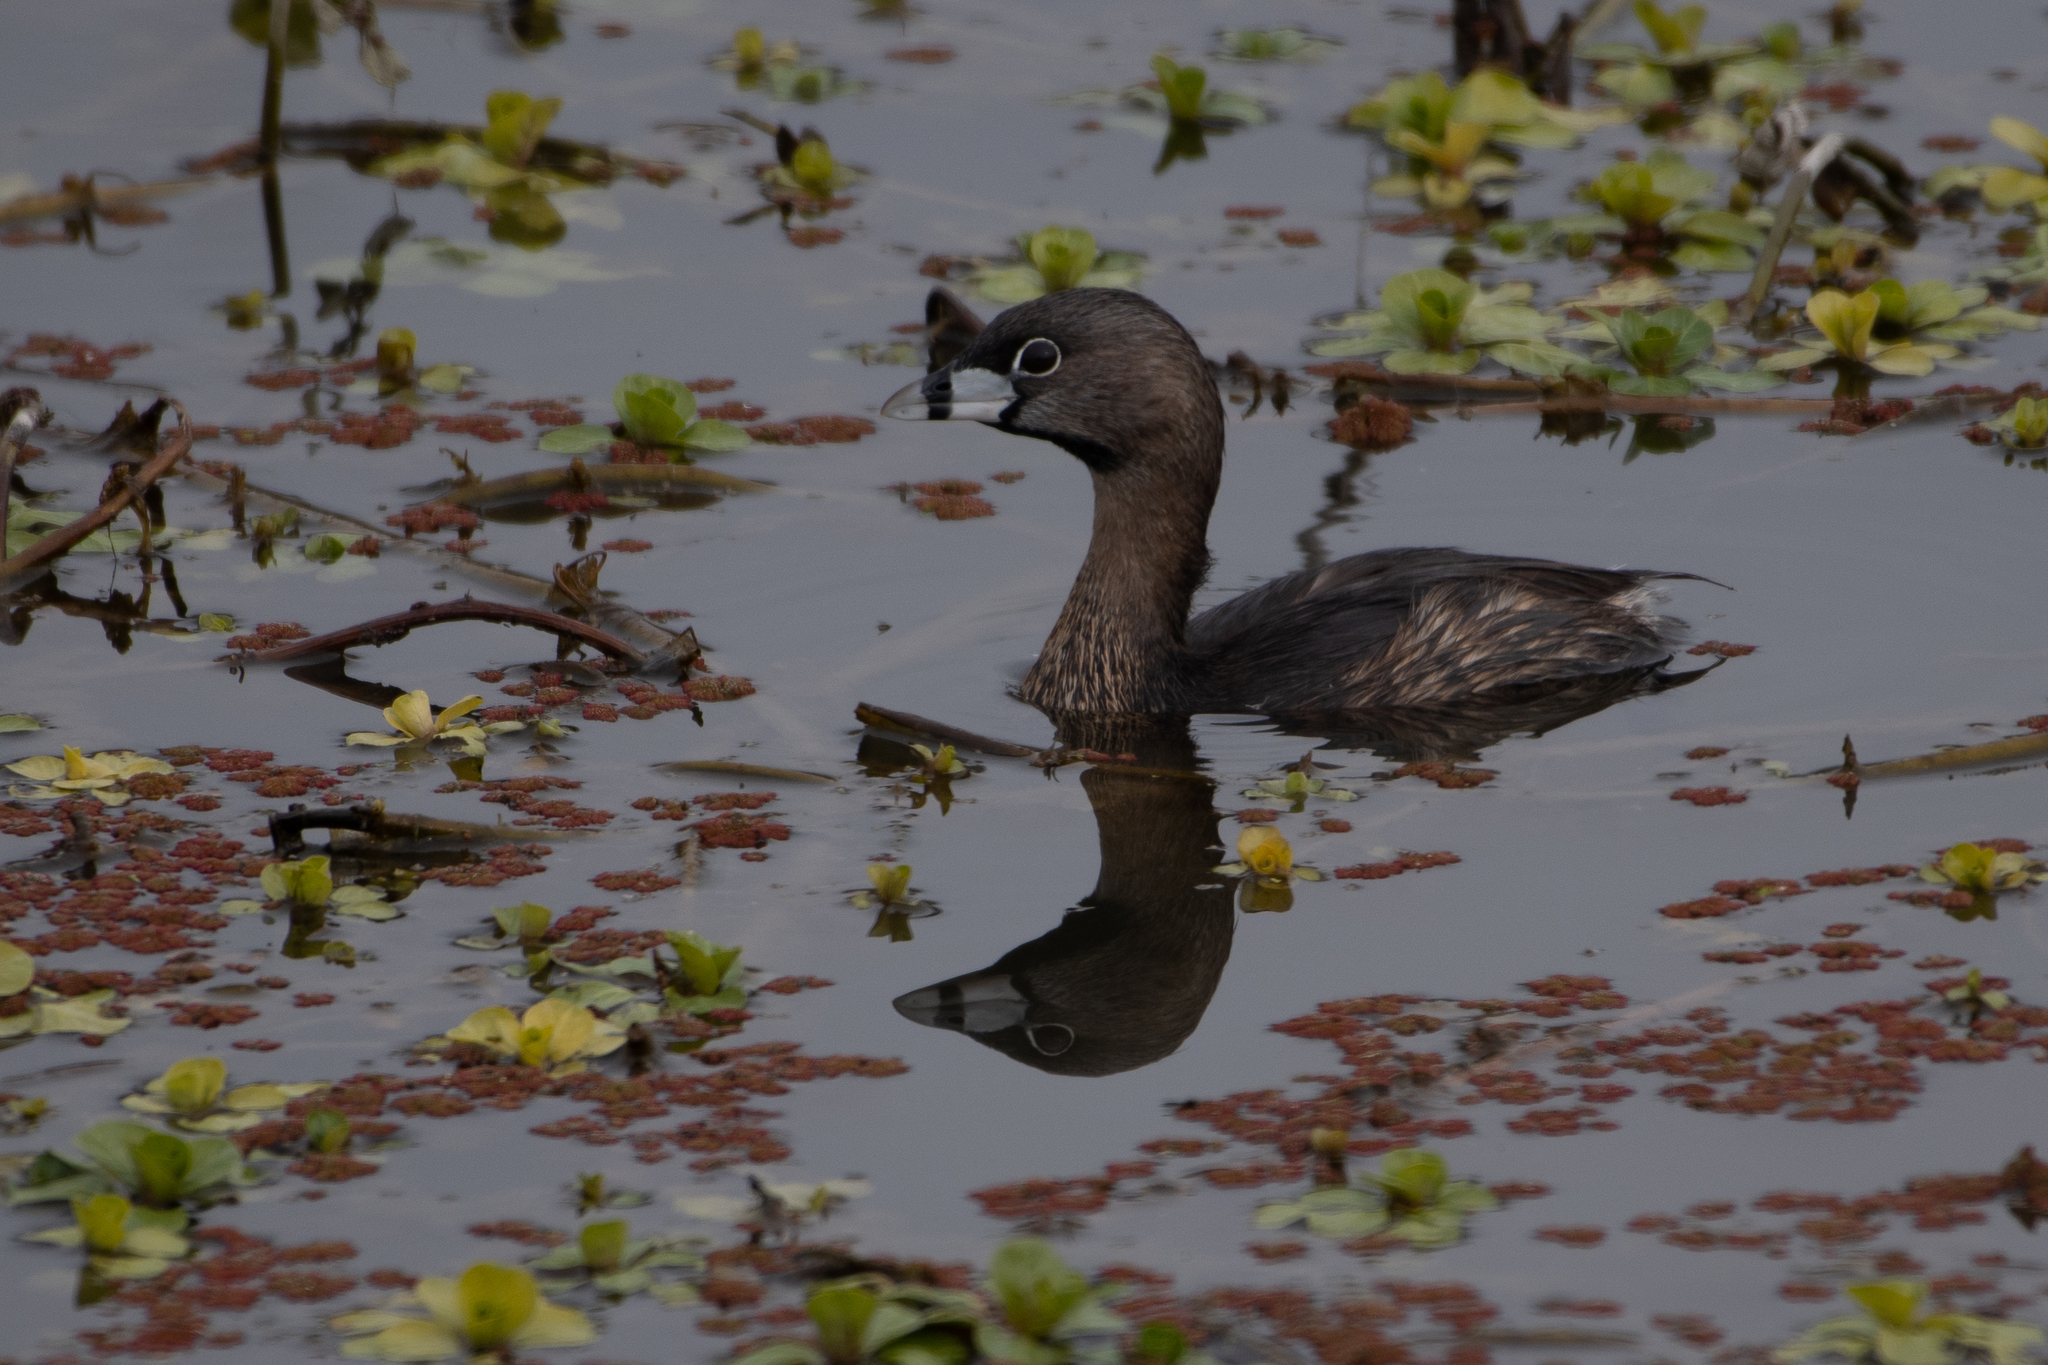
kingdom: Animalia
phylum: Chordata
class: Aves
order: Podicipediformes
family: Podicipedidae
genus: Podilymbus
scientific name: Podilymbus podiceps
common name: Pied-billed grebe
